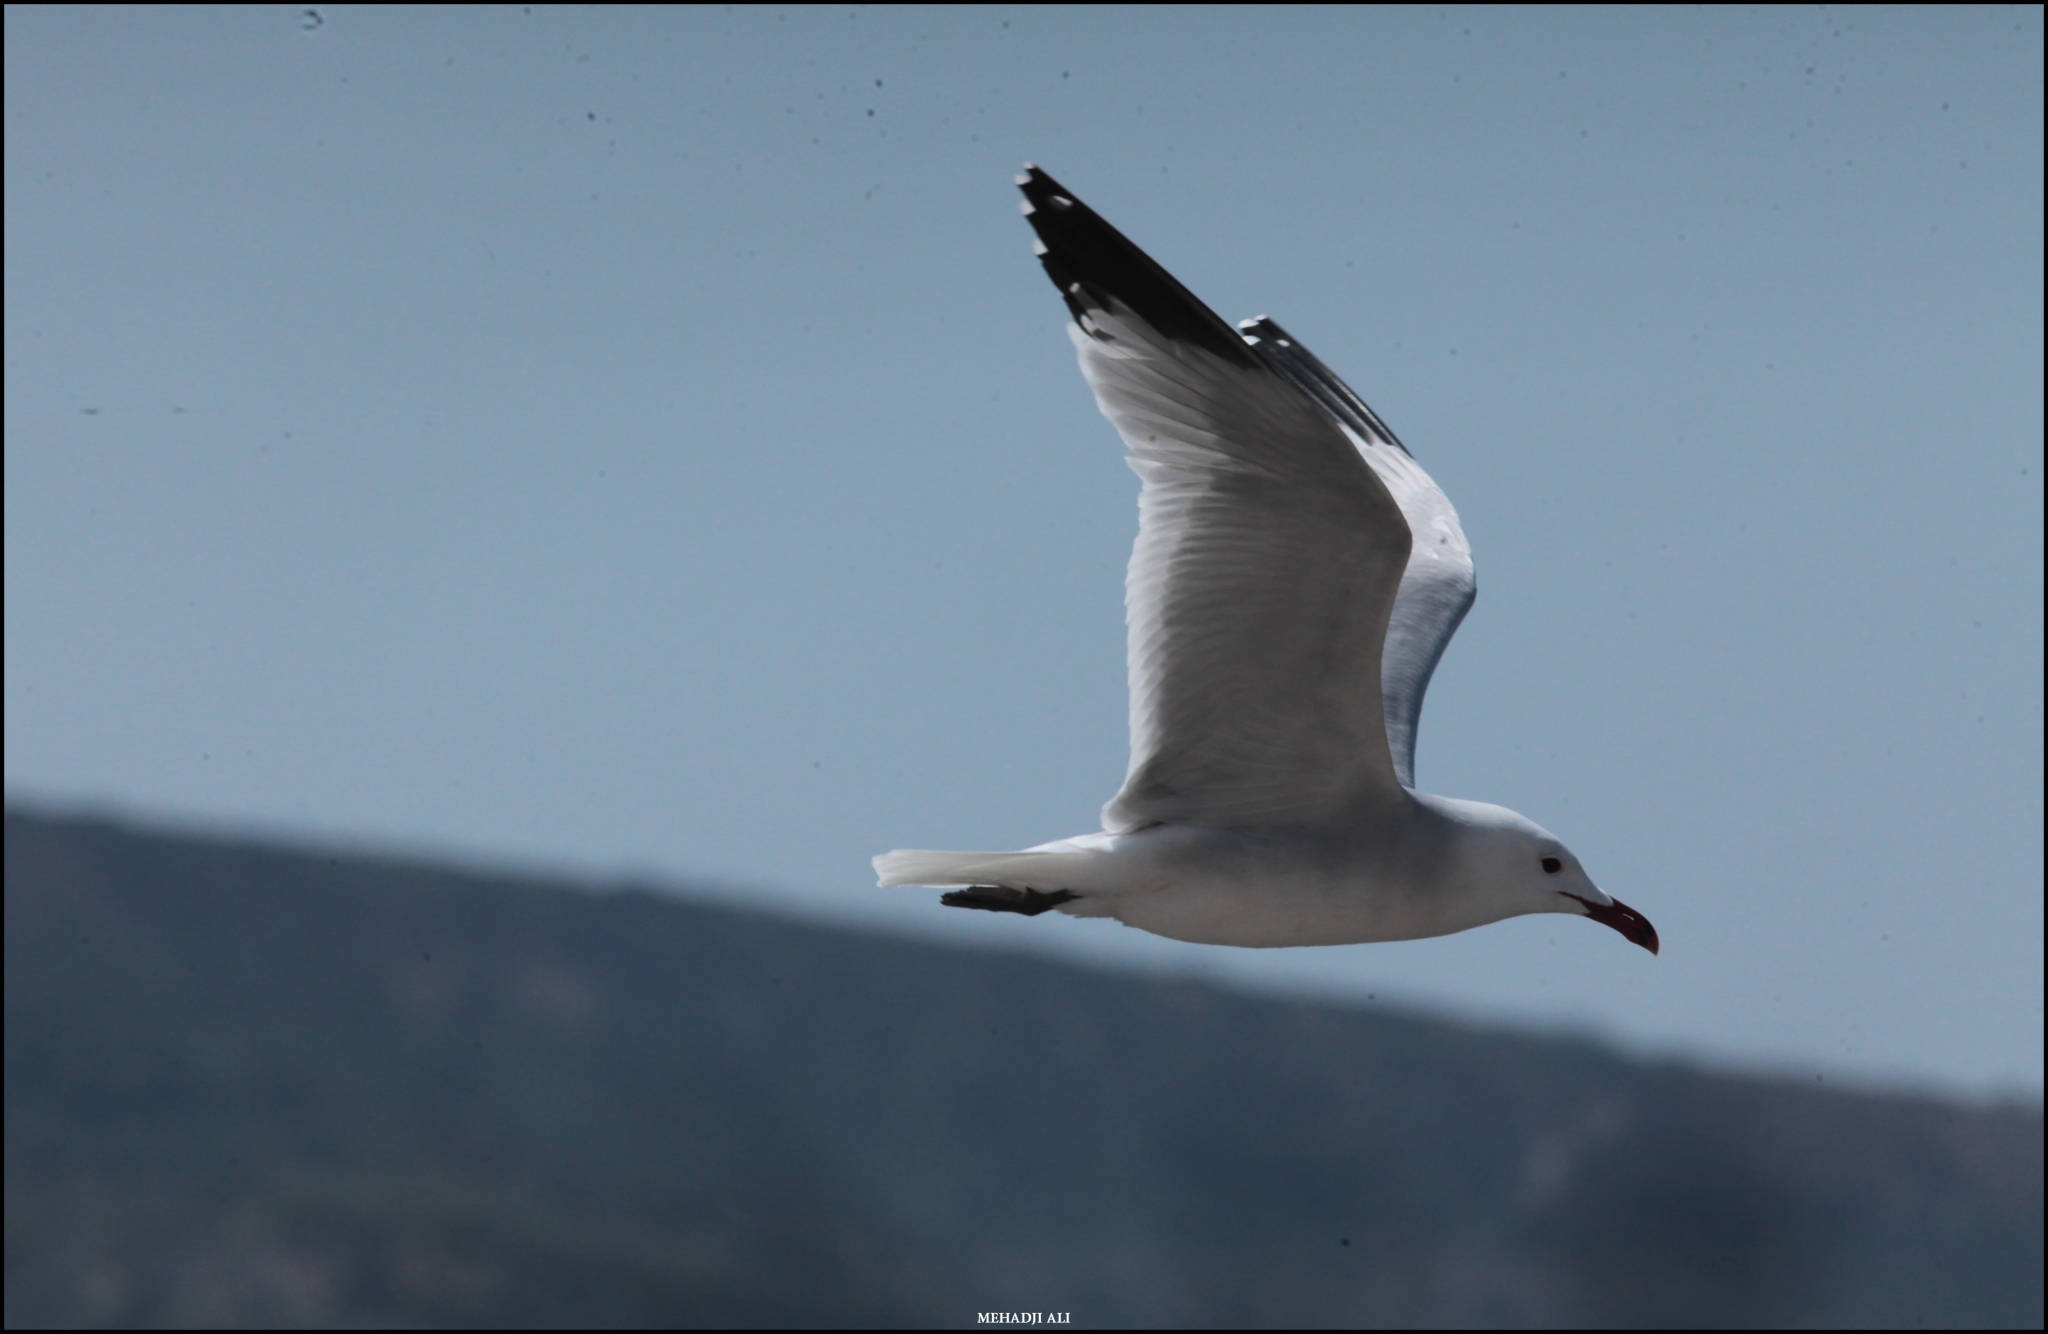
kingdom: Animalia
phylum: Chordata
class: Aves
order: Charadriiformes
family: Laridae
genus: Ichthyaetus
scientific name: Ichthyaetus audouinii
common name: Audouin's gull
